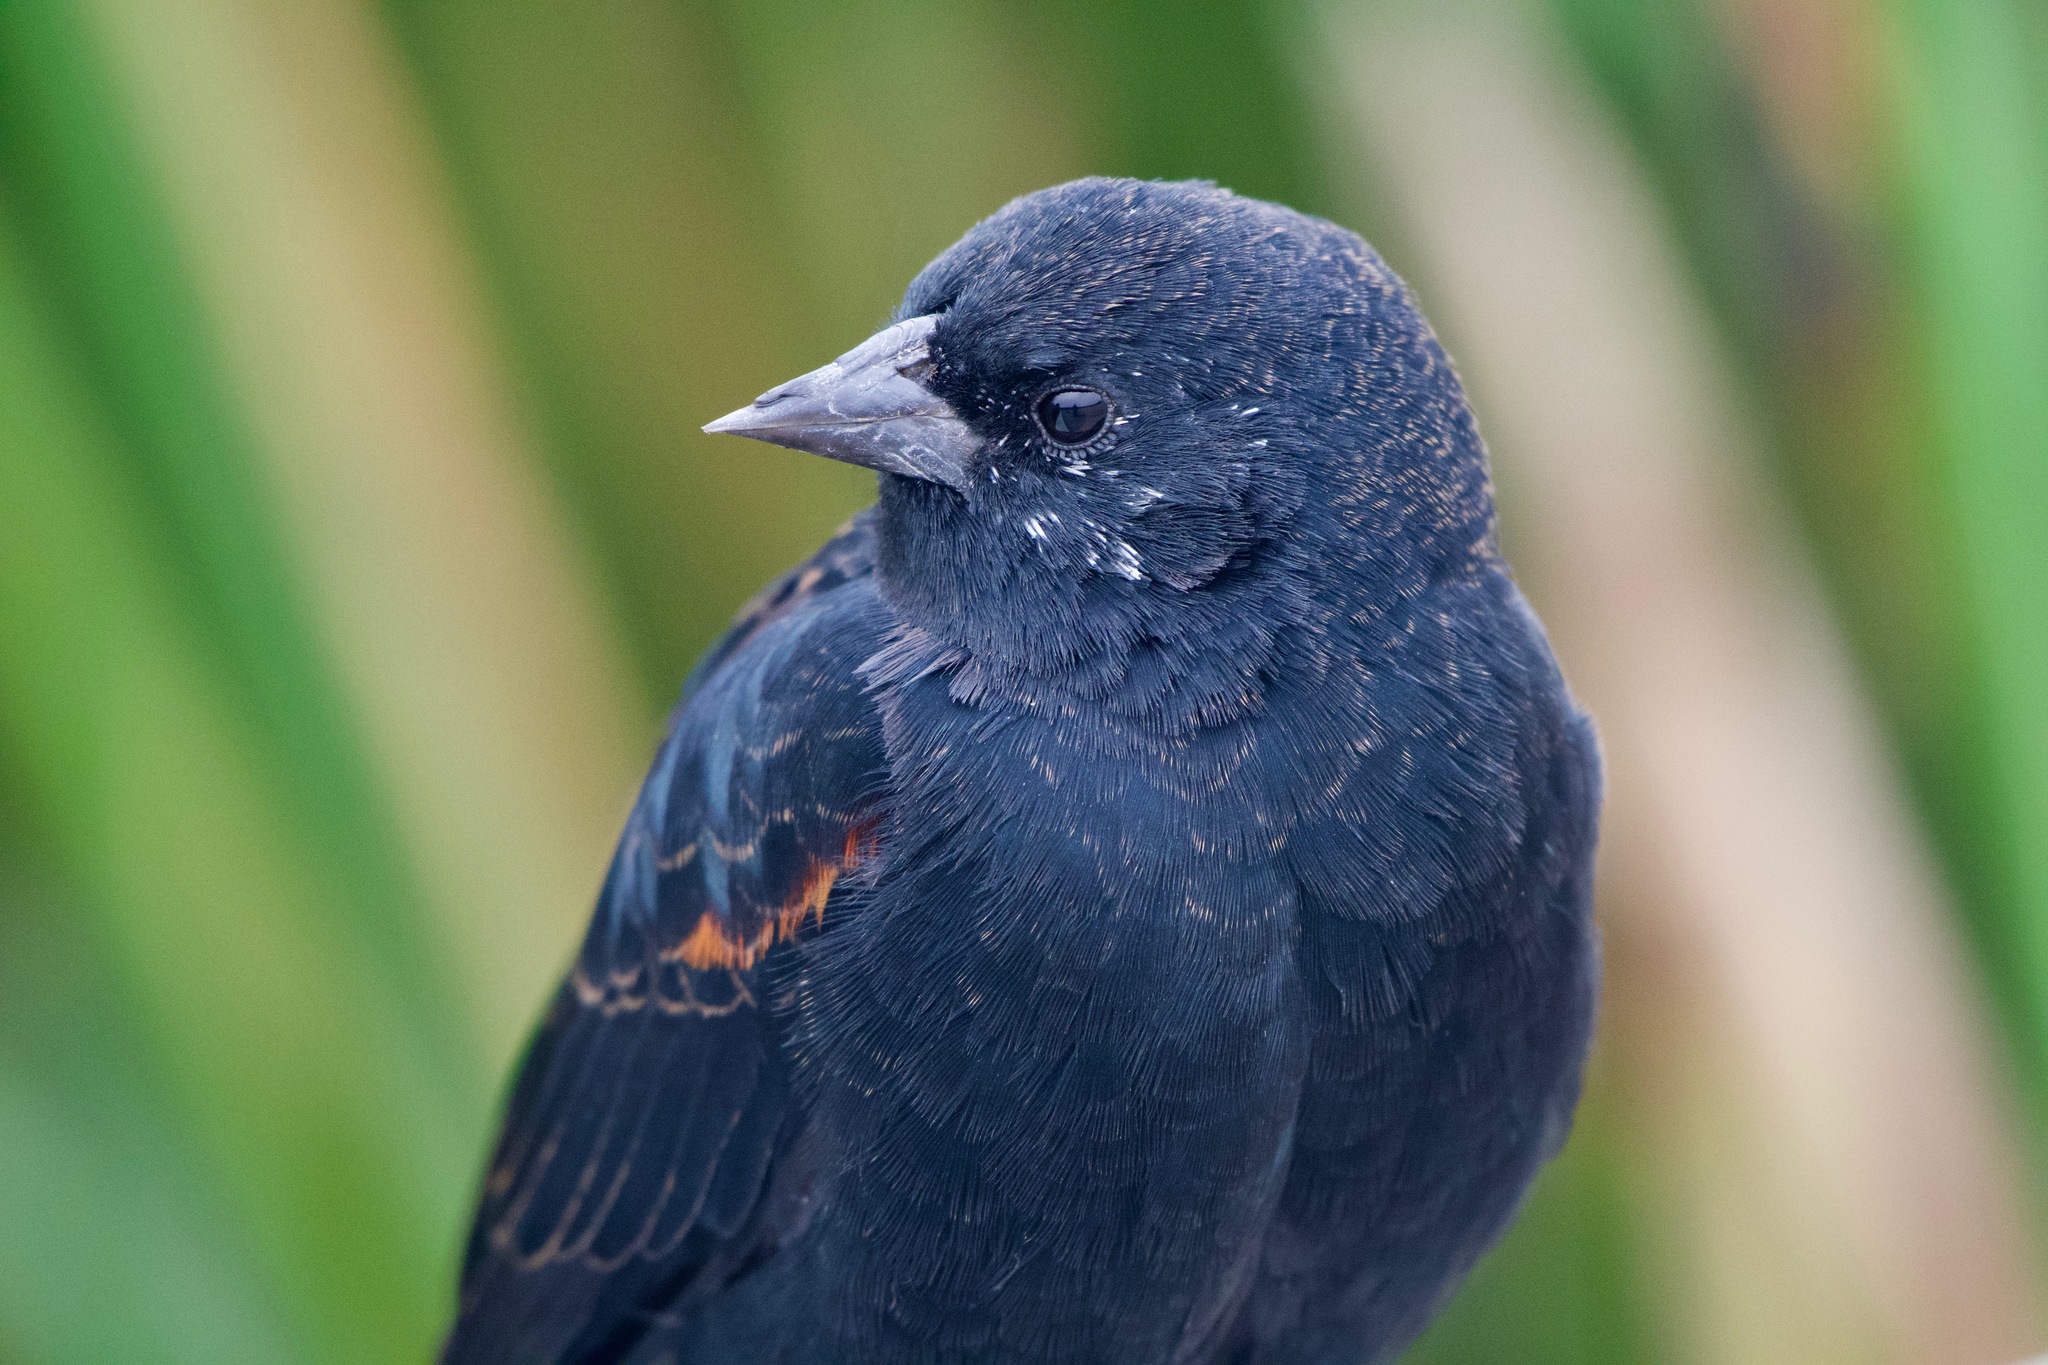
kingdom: Animalia
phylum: Chordata
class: Aves
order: Passeriformes
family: Icteridae
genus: Agelaius
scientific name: Agelaius phoeniceus
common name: Red-winged blackbird
